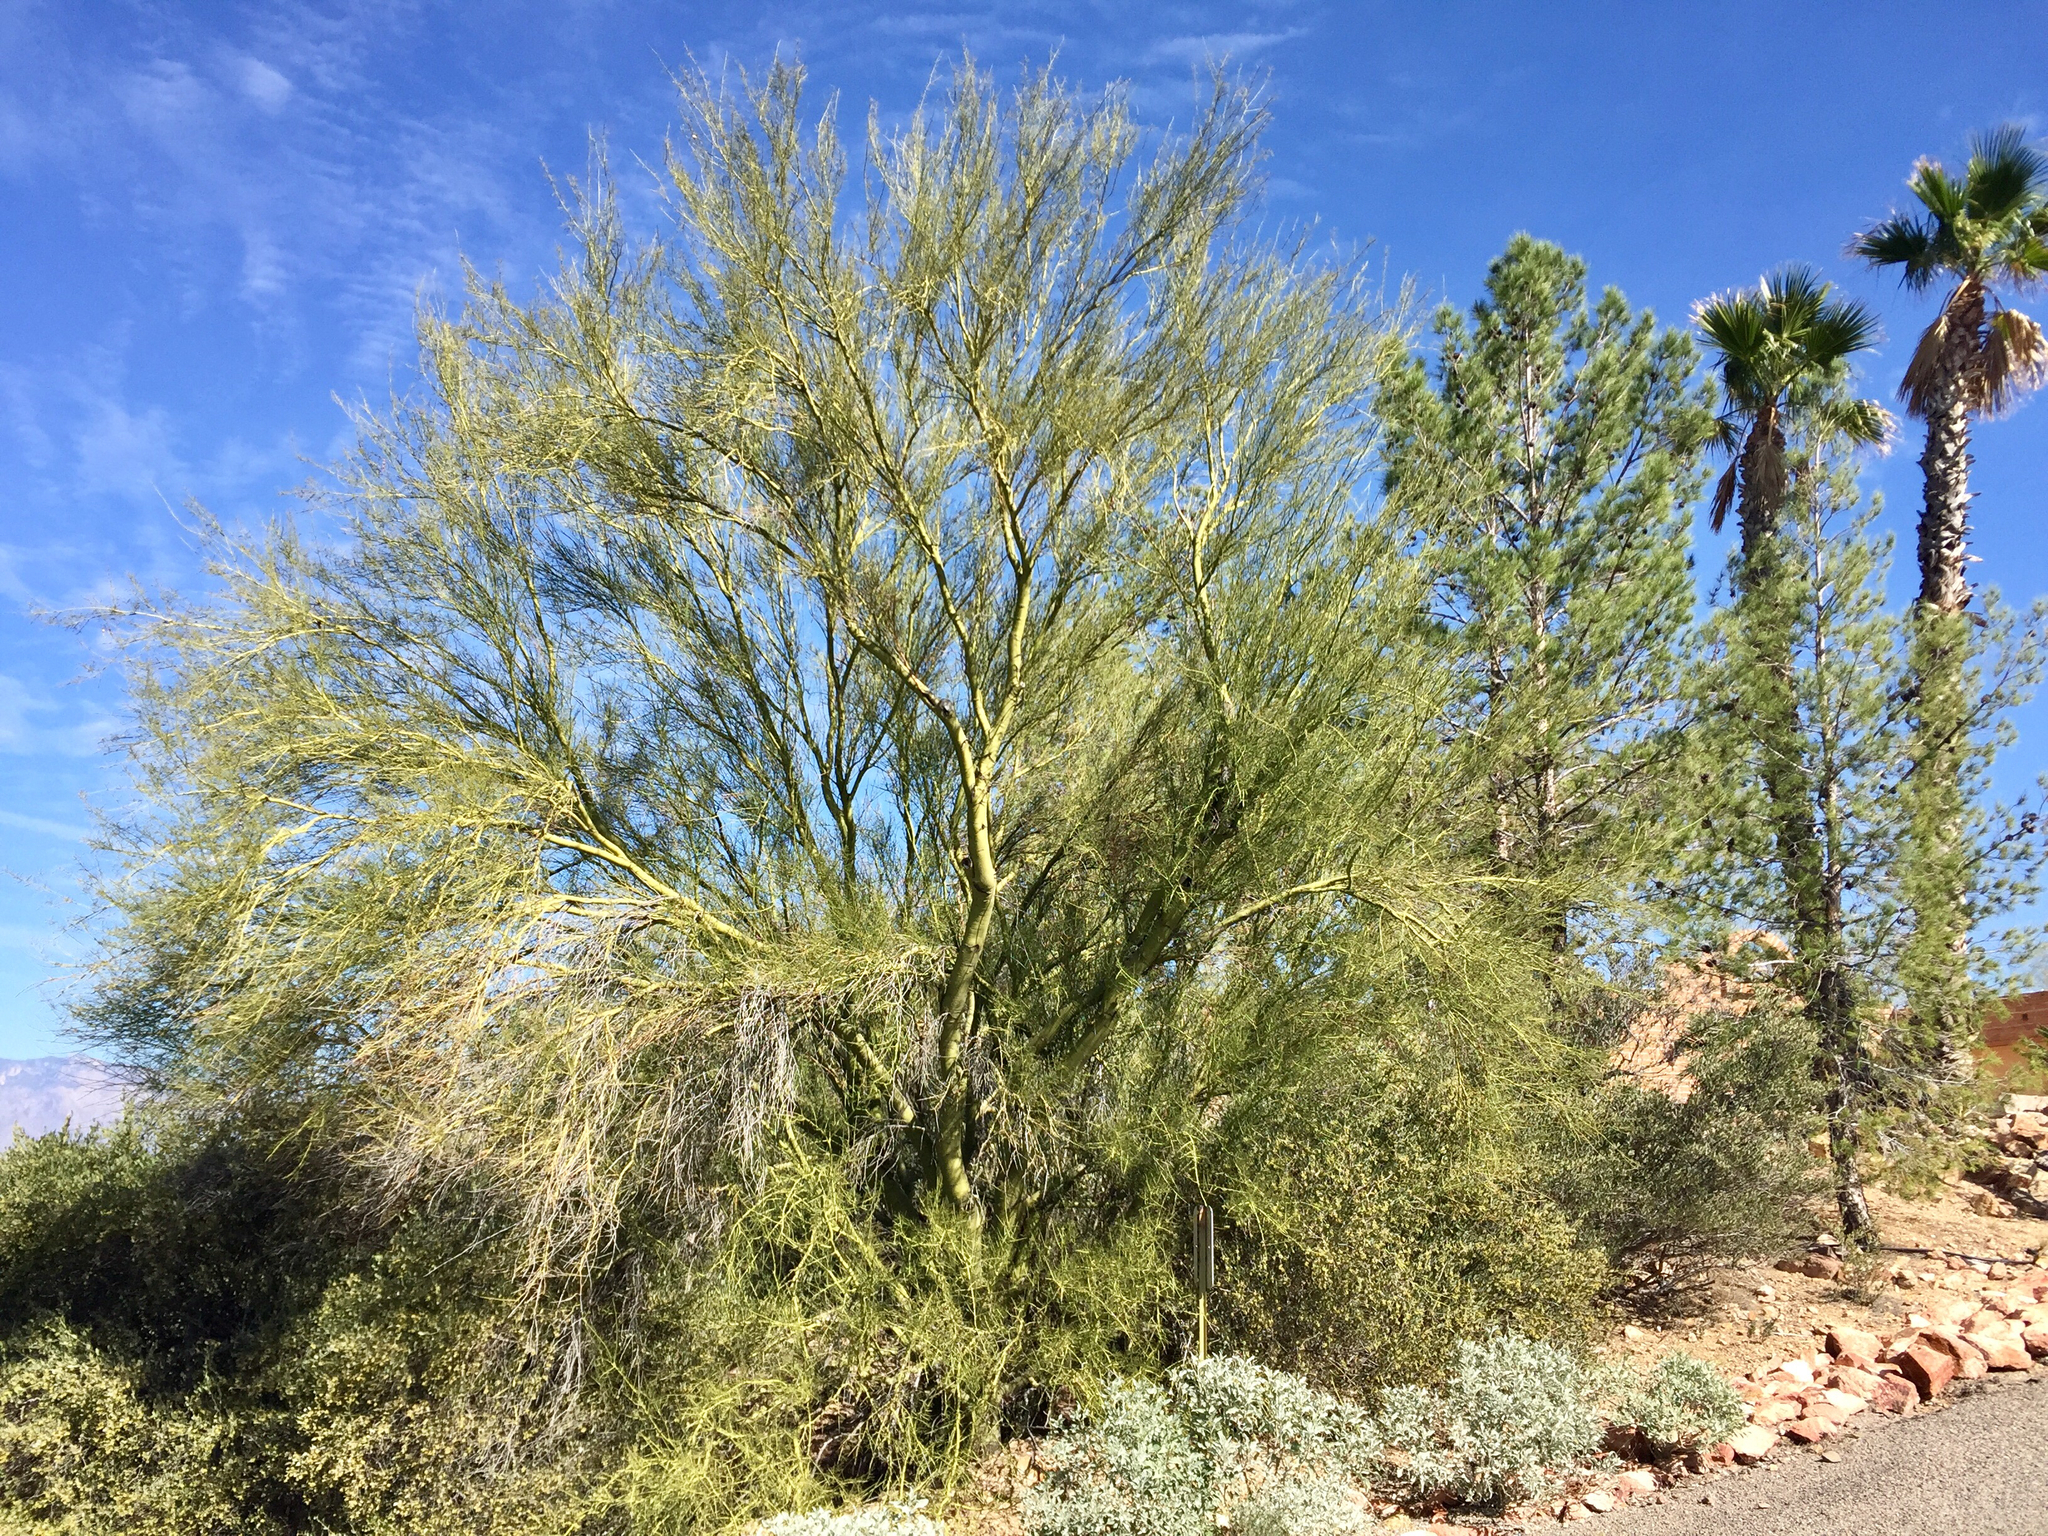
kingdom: Plantae
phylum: Tracheophyta
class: Magnoliopsida
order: Fabales
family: Fabaceae
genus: Parkinsonia
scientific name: Parkinsonia microphylla
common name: Yellow paloverde
